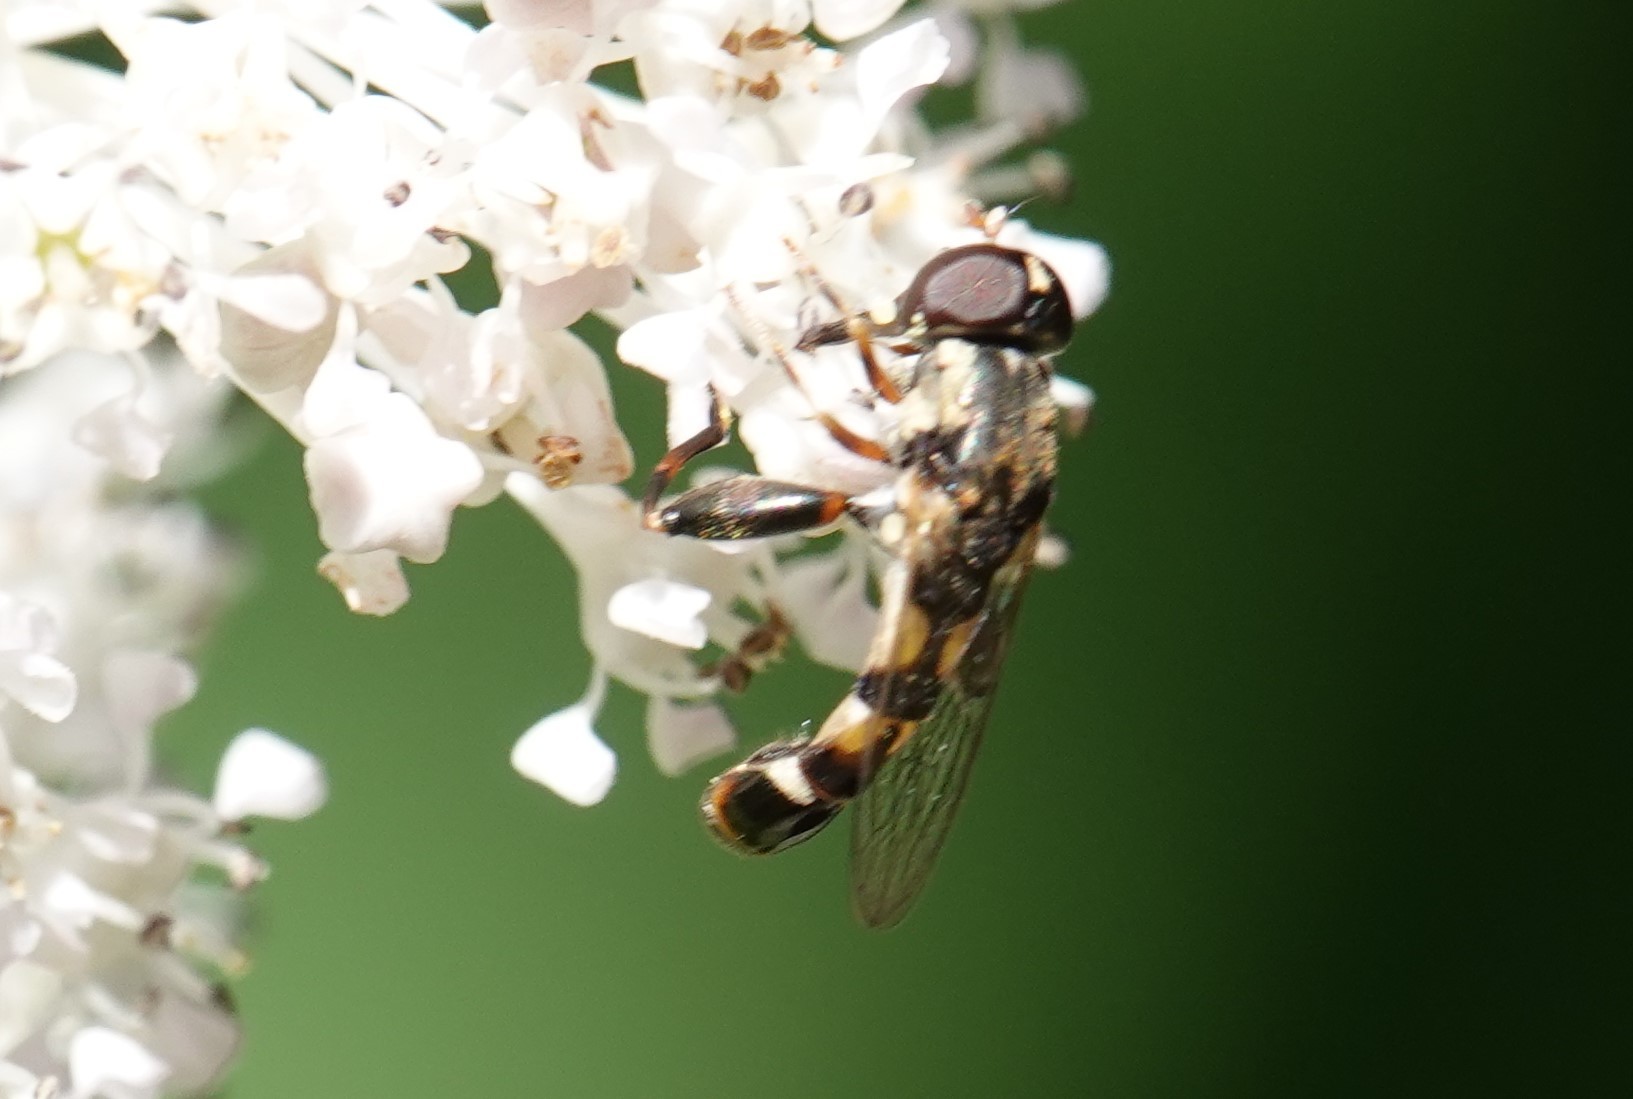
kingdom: Animalia
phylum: Arthropoda
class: Insecta
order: Diptera
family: Syrphidae
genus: Syritta
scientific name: Syritta pipiens
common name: Hover fly
